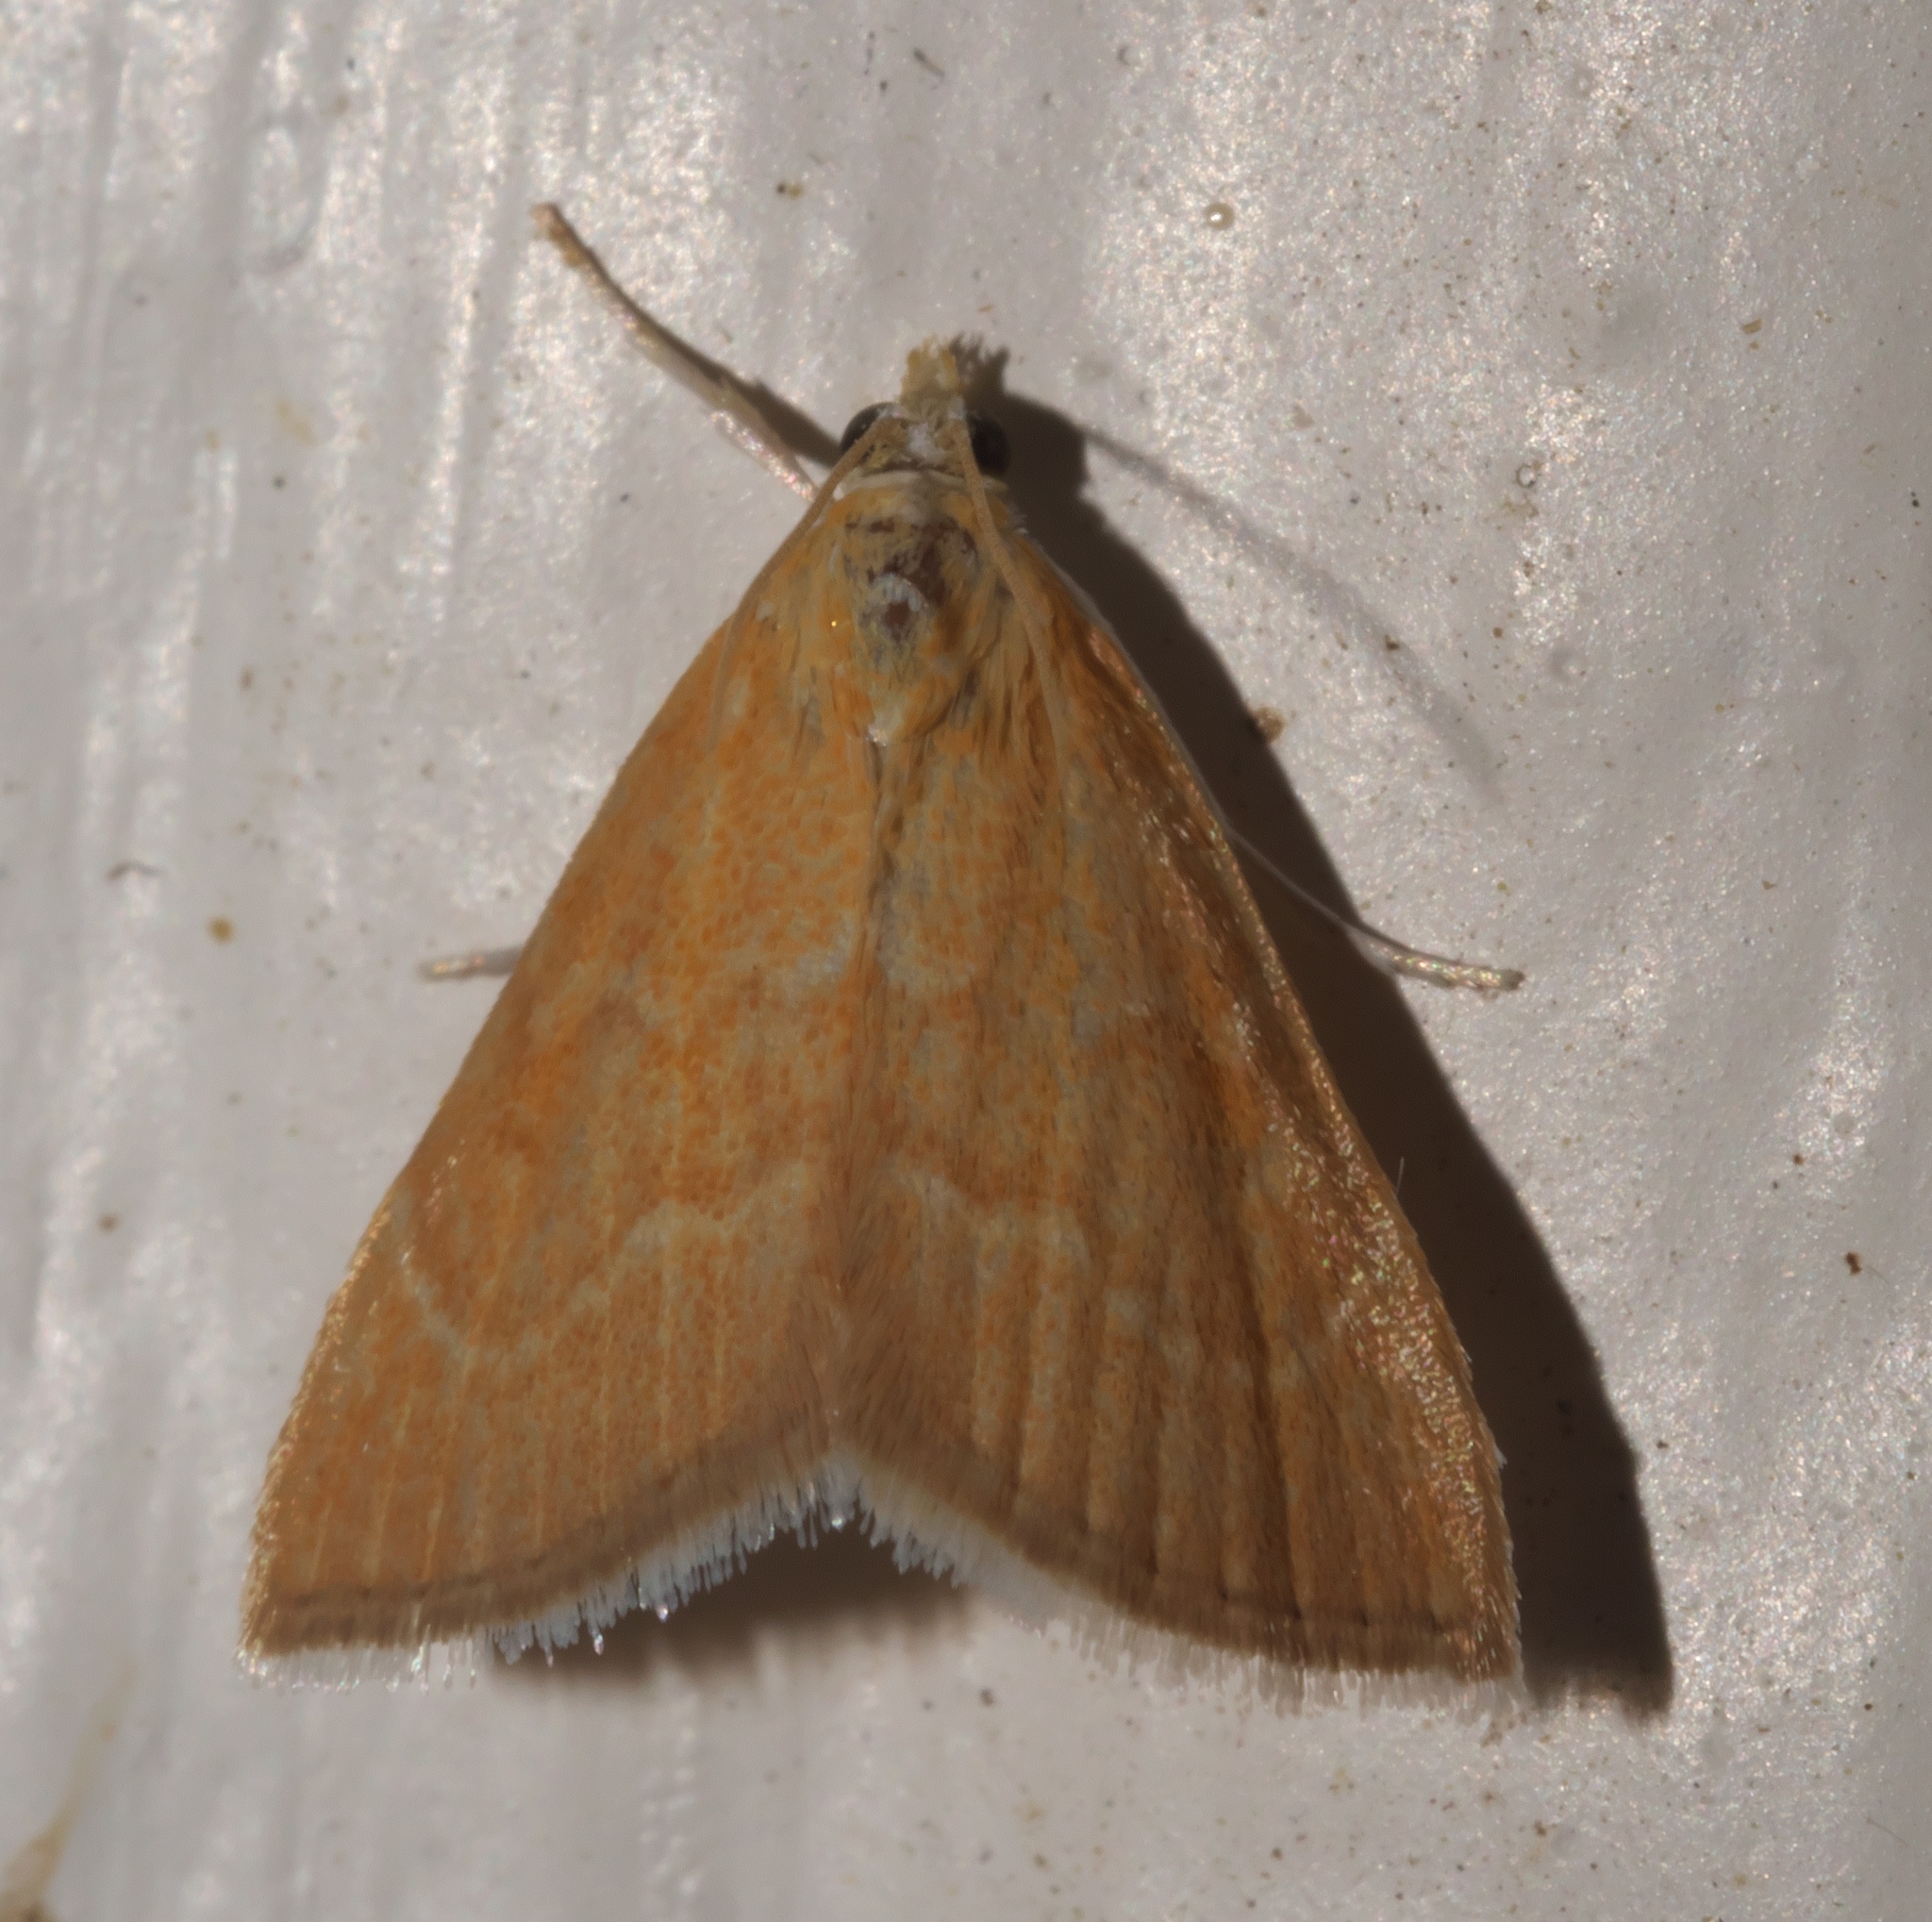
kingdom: Animalia
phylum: Arthropoda
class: Insecta
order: Lepidoptera
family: Crambidae
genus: Glaphyria
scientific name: Glaphyria invisalis
